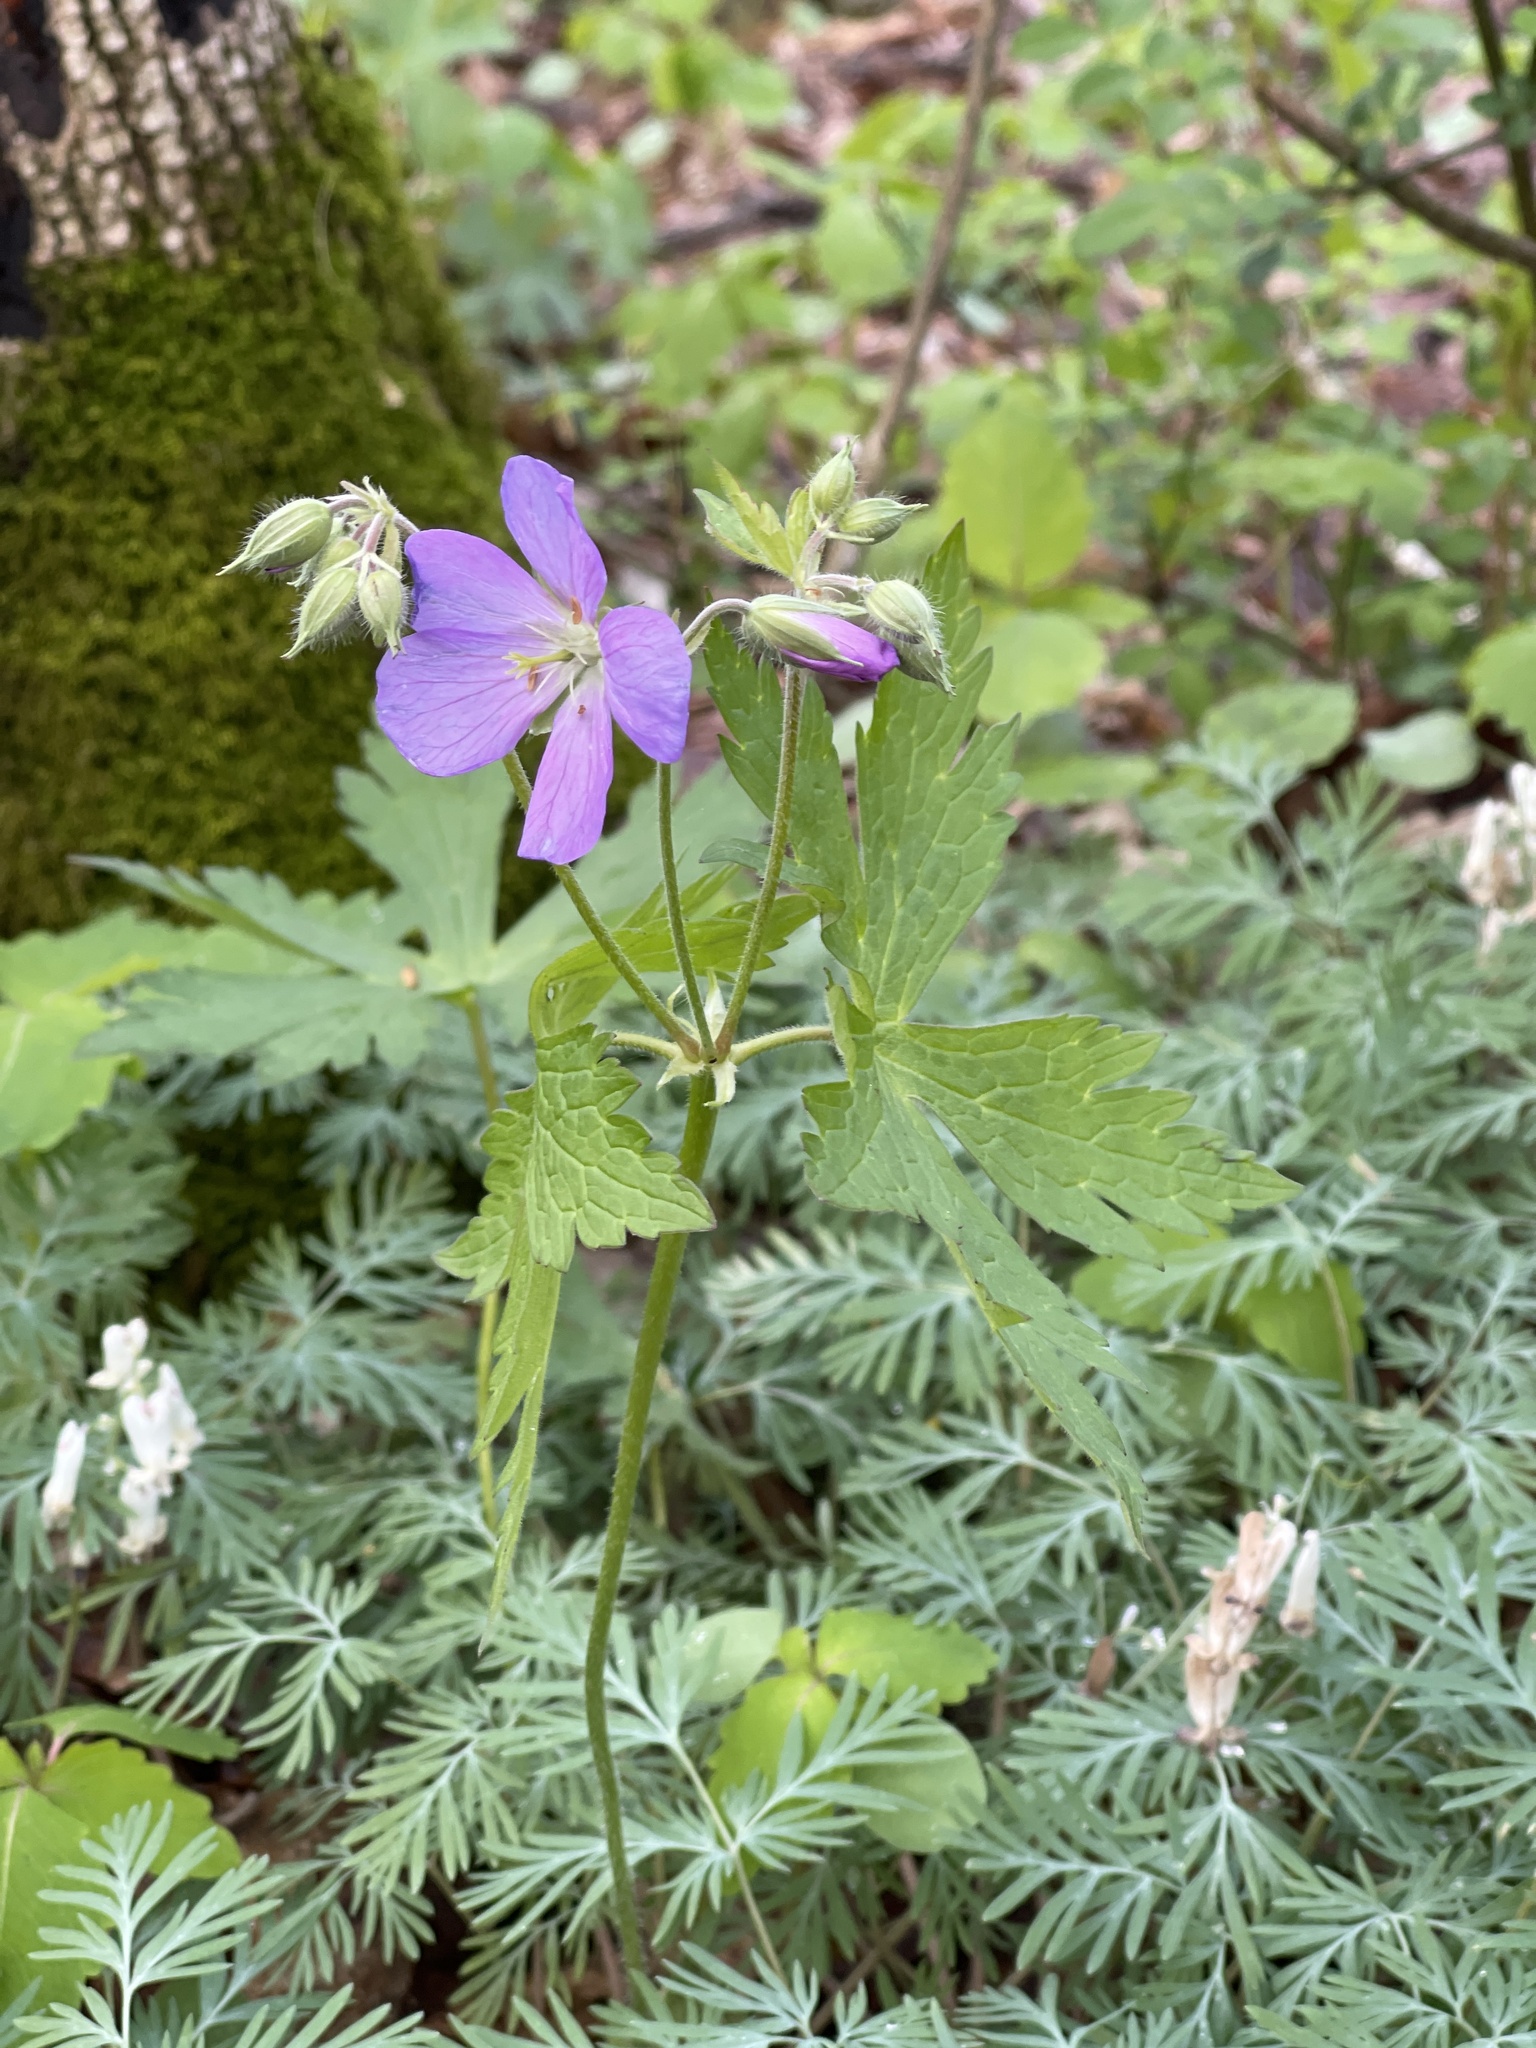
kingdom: Plantae
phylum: Tracheophyta
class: Magnoliopsida
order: Geraniales
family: Geraniaceae
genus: Geranium
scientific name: Geranium maculatum
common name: Spotted geranium
